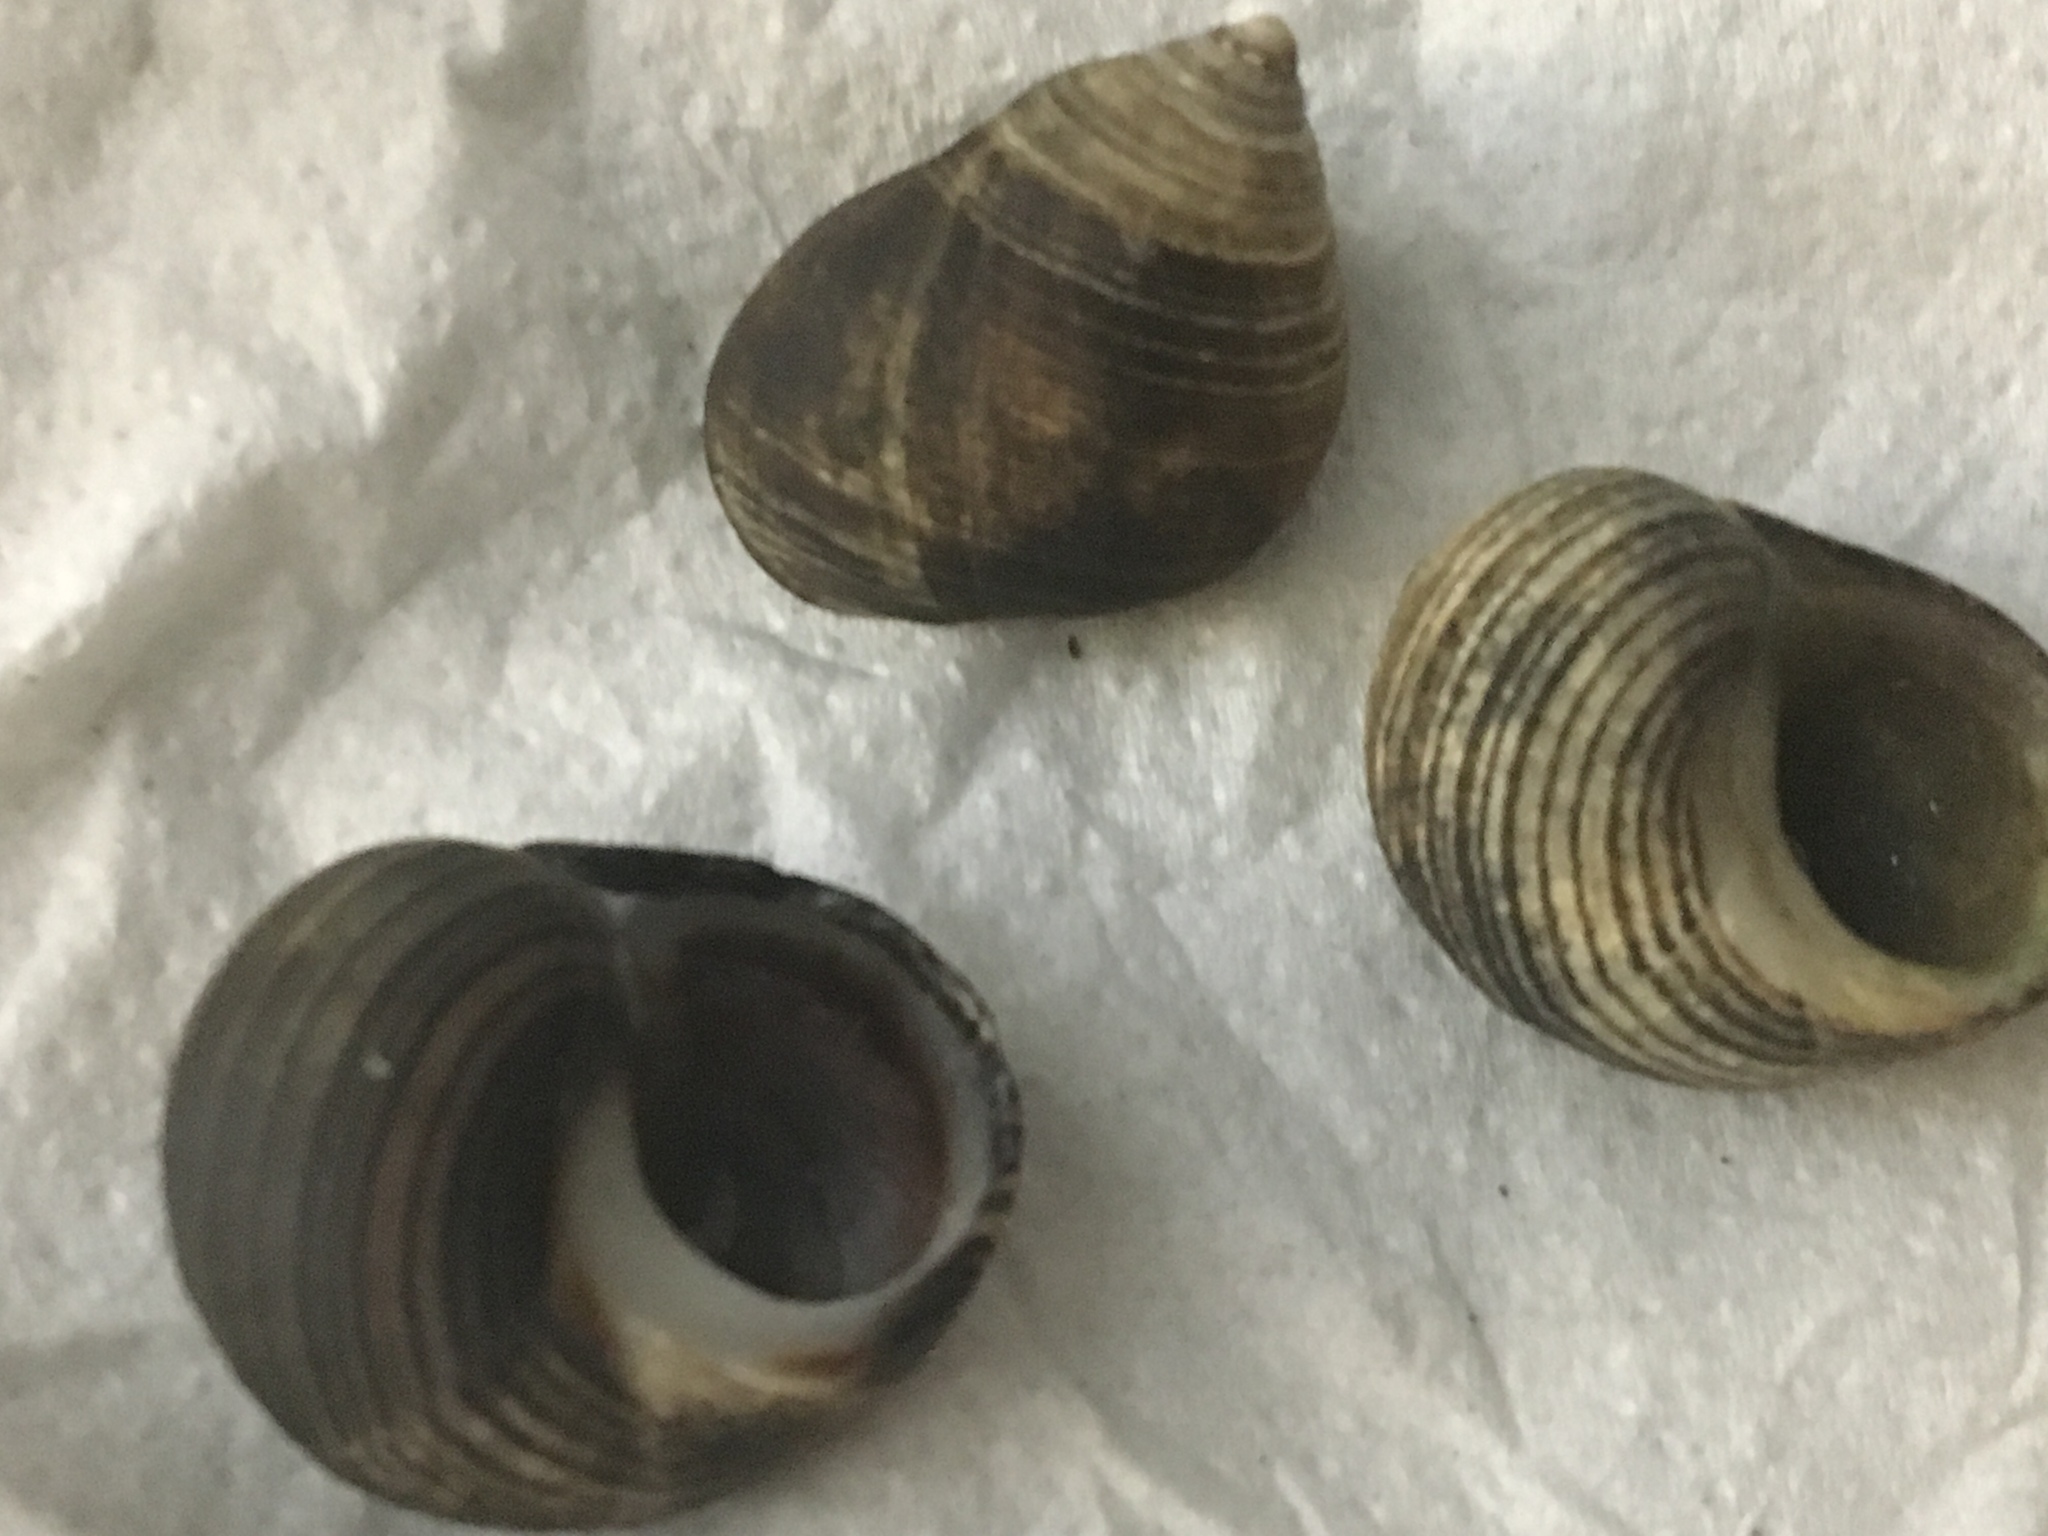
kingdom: Animalia
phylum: Mollusca
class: Gastropoda
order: Littorinimorpha
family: Littorinidae
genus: Littorina
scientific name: Littorina littorea
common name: Common periwinkle
